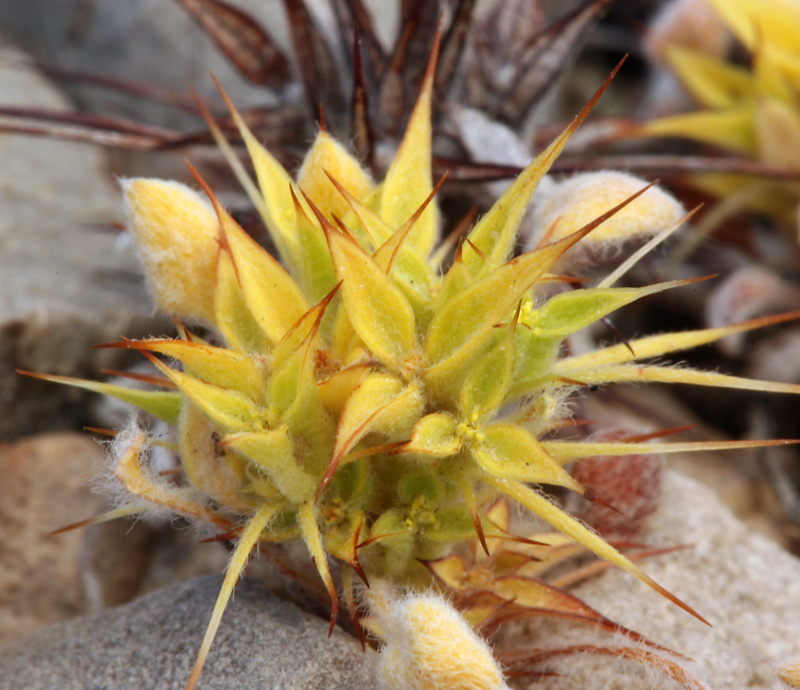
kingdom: Plantae
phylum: Tracheophyta
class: Magnoliopsida
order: Caryophyllales
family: Polygonaceae
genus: Chorizanthe
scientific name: Chorizanthe rigida
